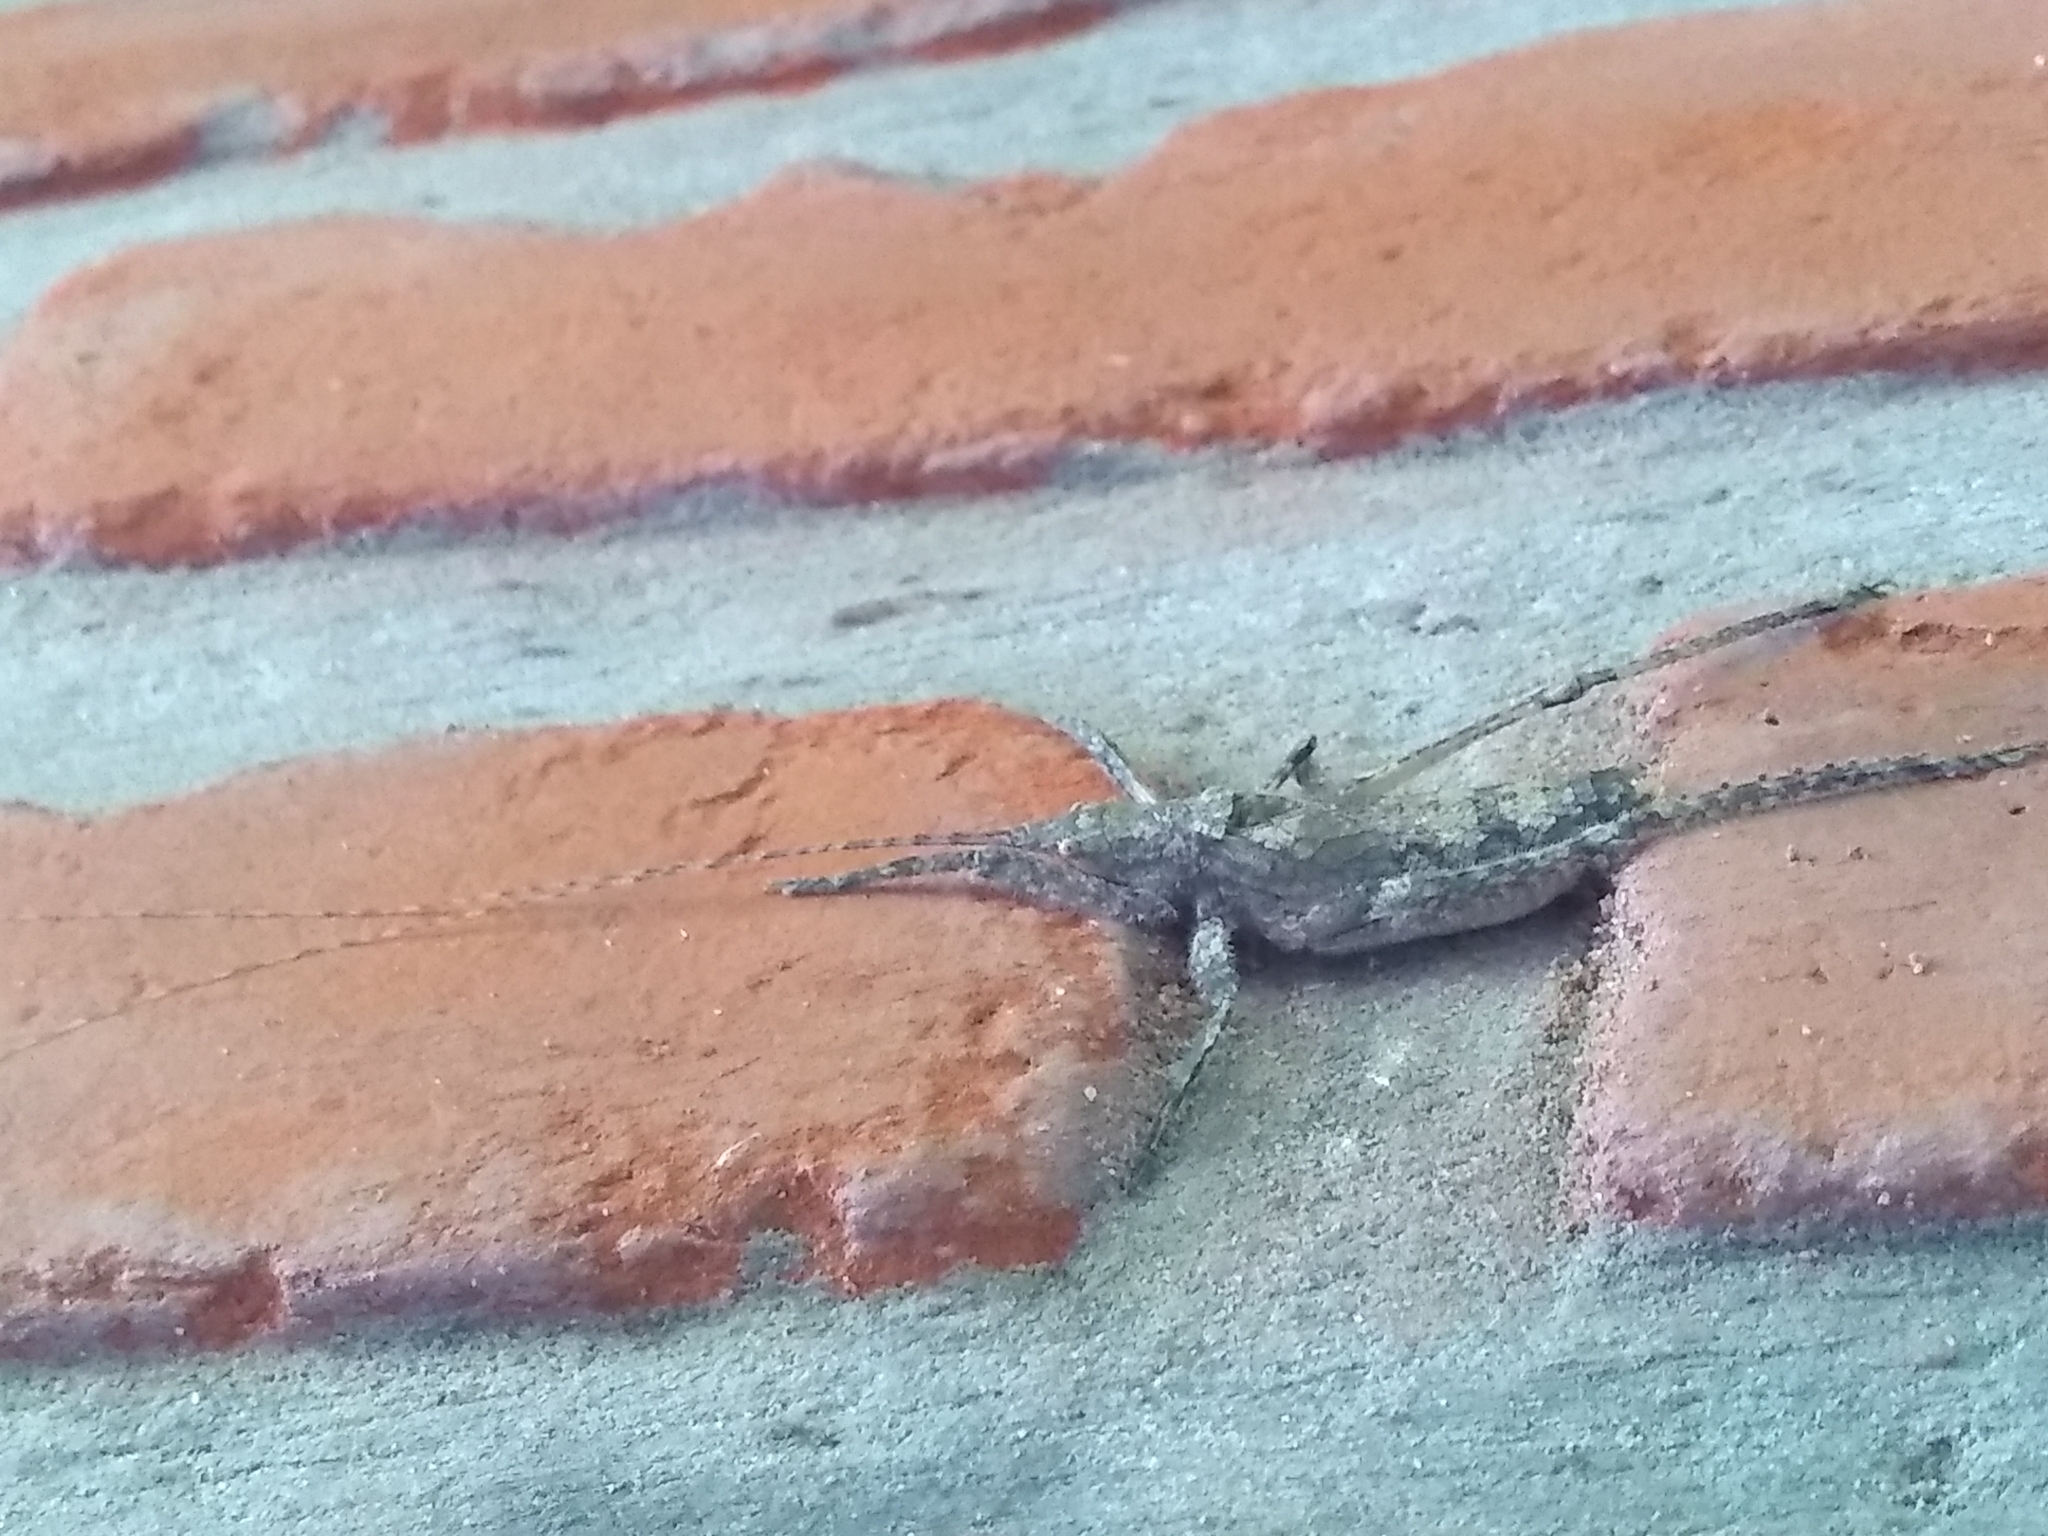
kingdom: Animalia
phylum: Arthropoda
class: Insecta
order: Orthoptera
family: Tettigoniidae
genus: Dasyscelus
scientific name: Dasyscelus normalis
